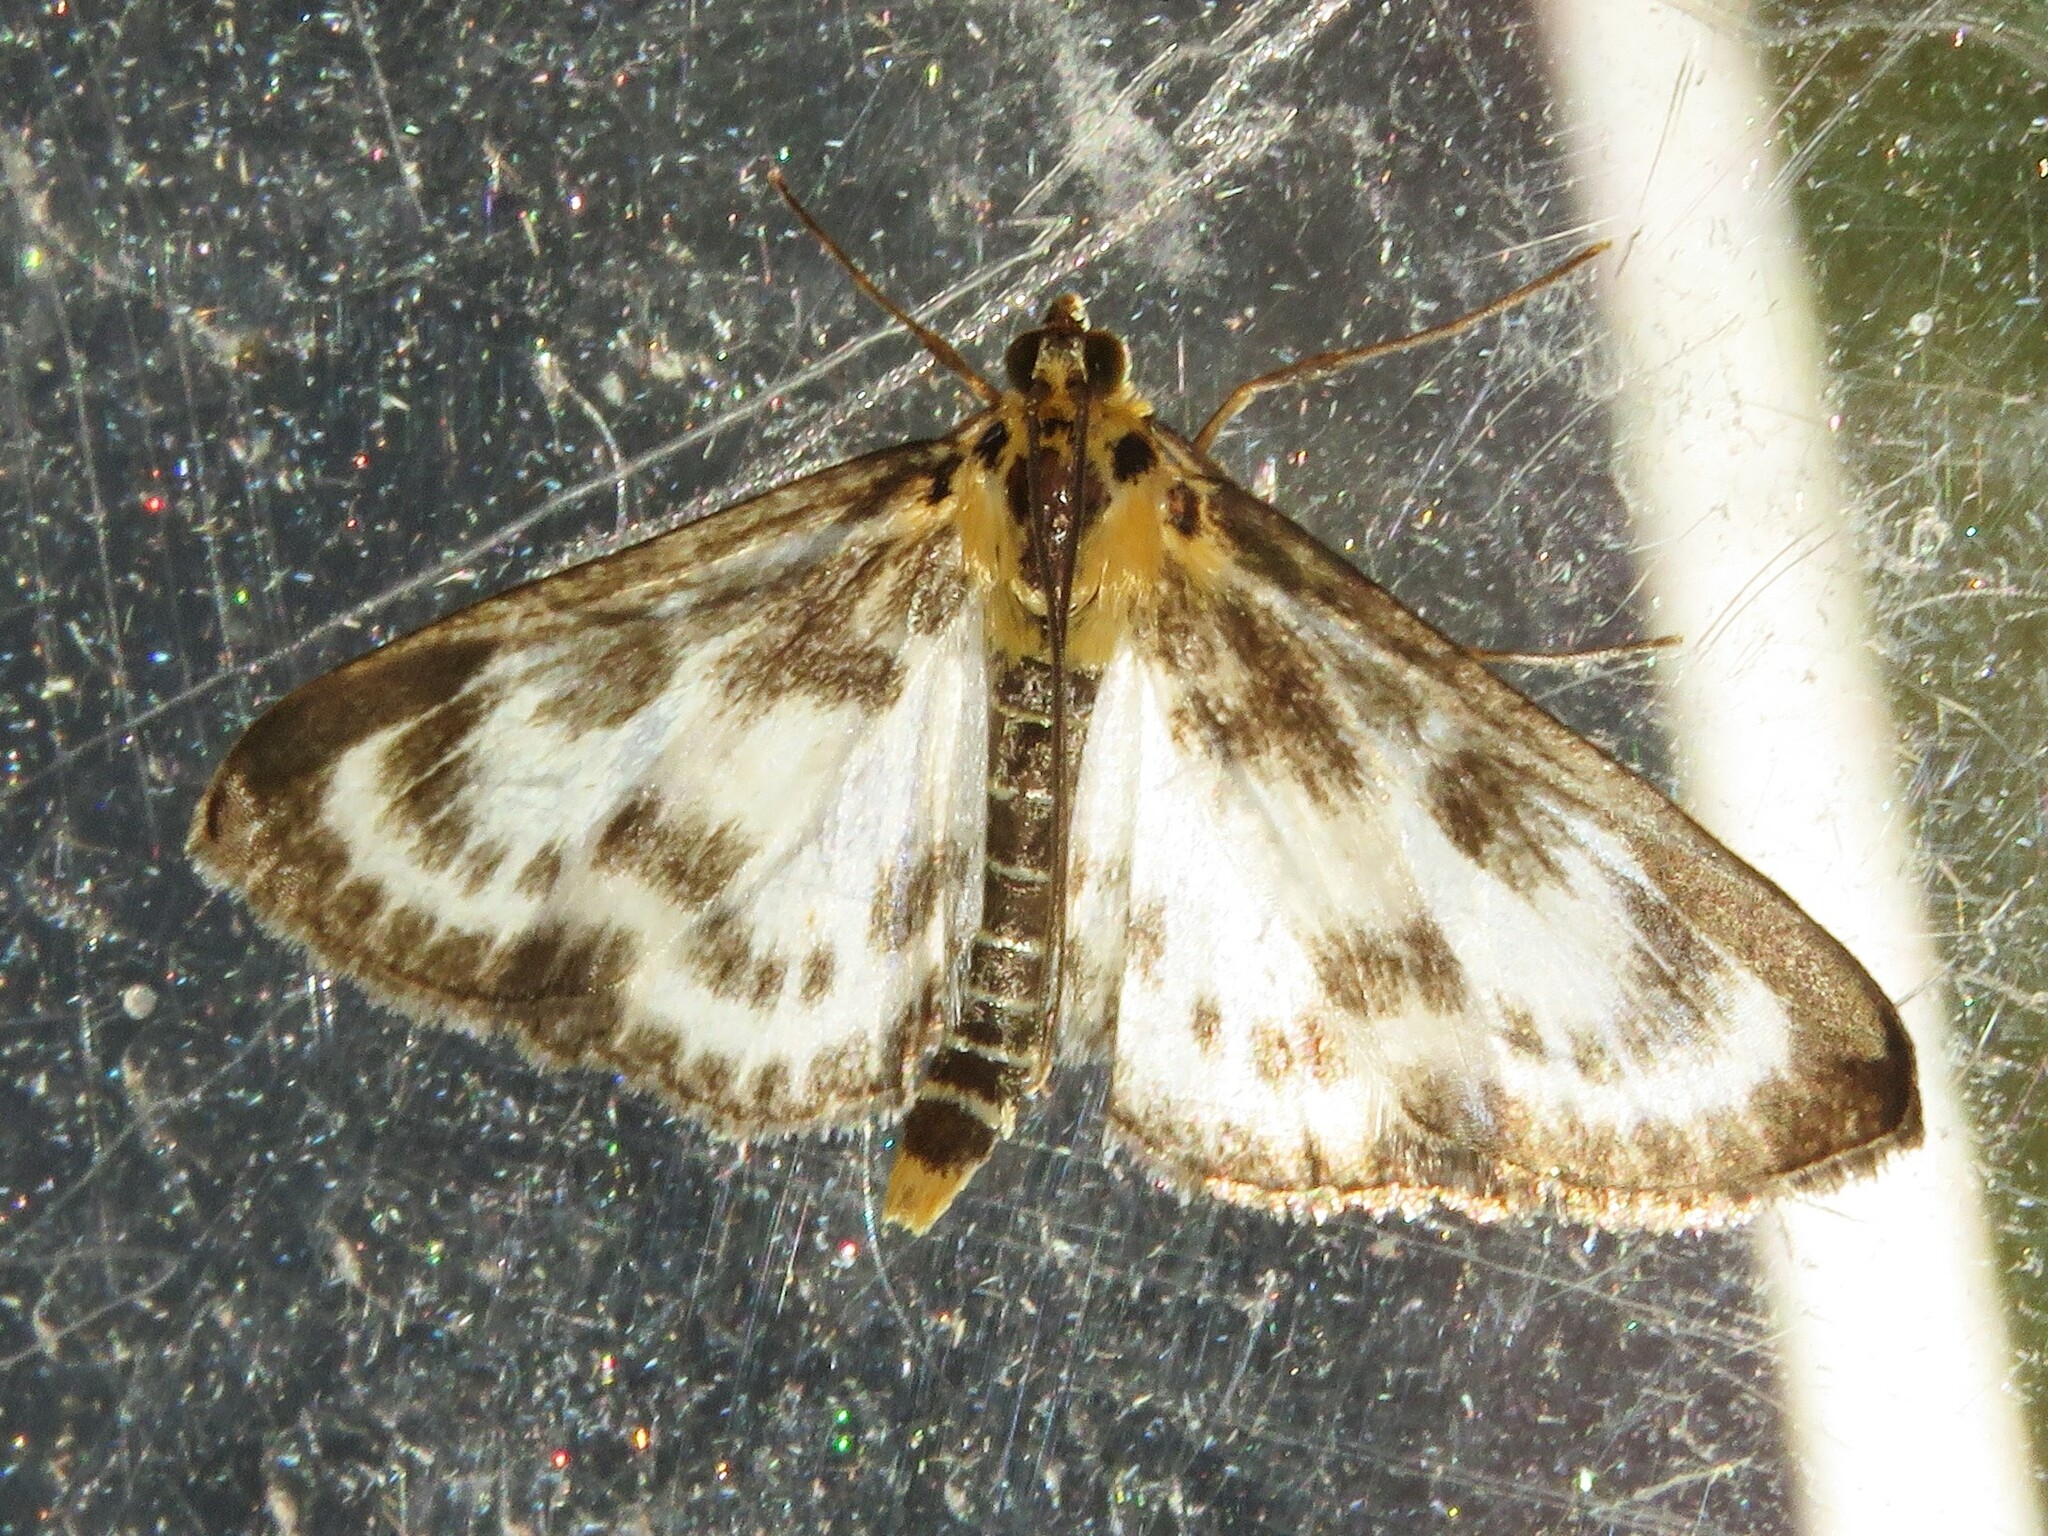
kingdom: Animalia
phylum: Arthropoda
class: Insecta
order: Lepidoptera
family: Crambidae
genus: Anania
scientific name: Anania hortulata
